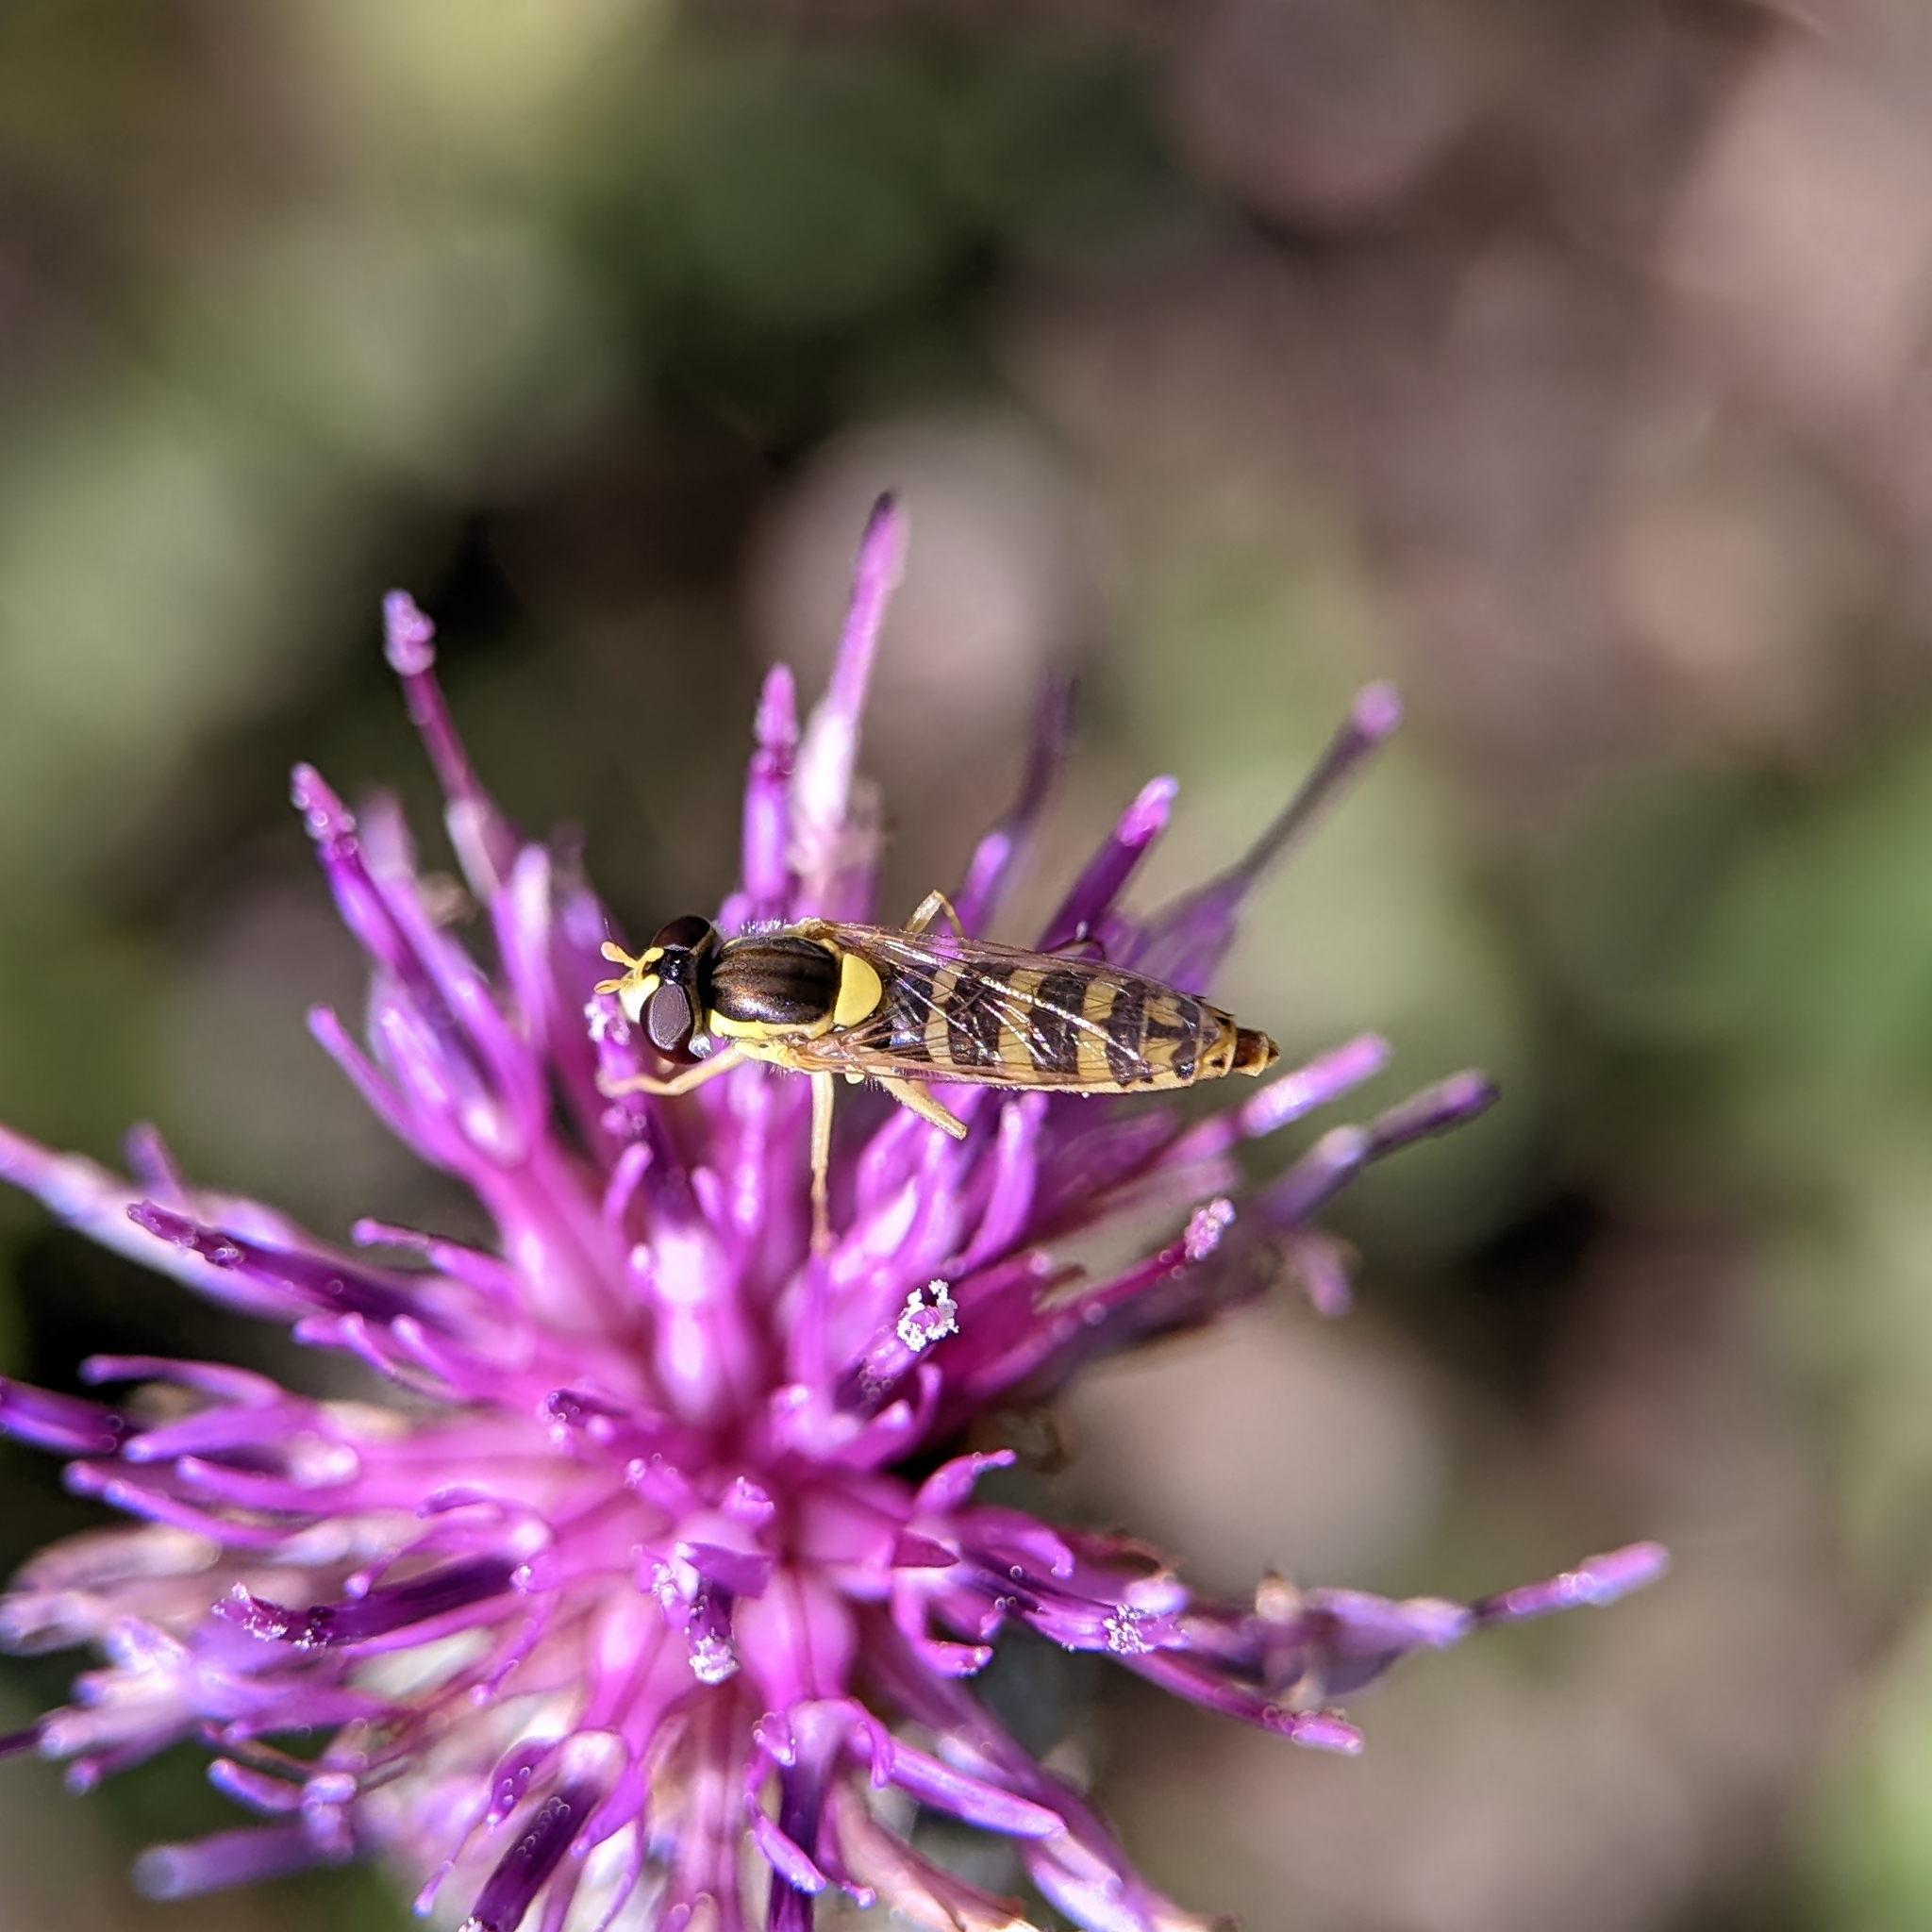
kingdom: Animalia
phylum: Arthropoda
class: Insecta
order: Diptera
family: Syrphidae
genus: Sphaerophoria
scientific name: Sphaerophoria
